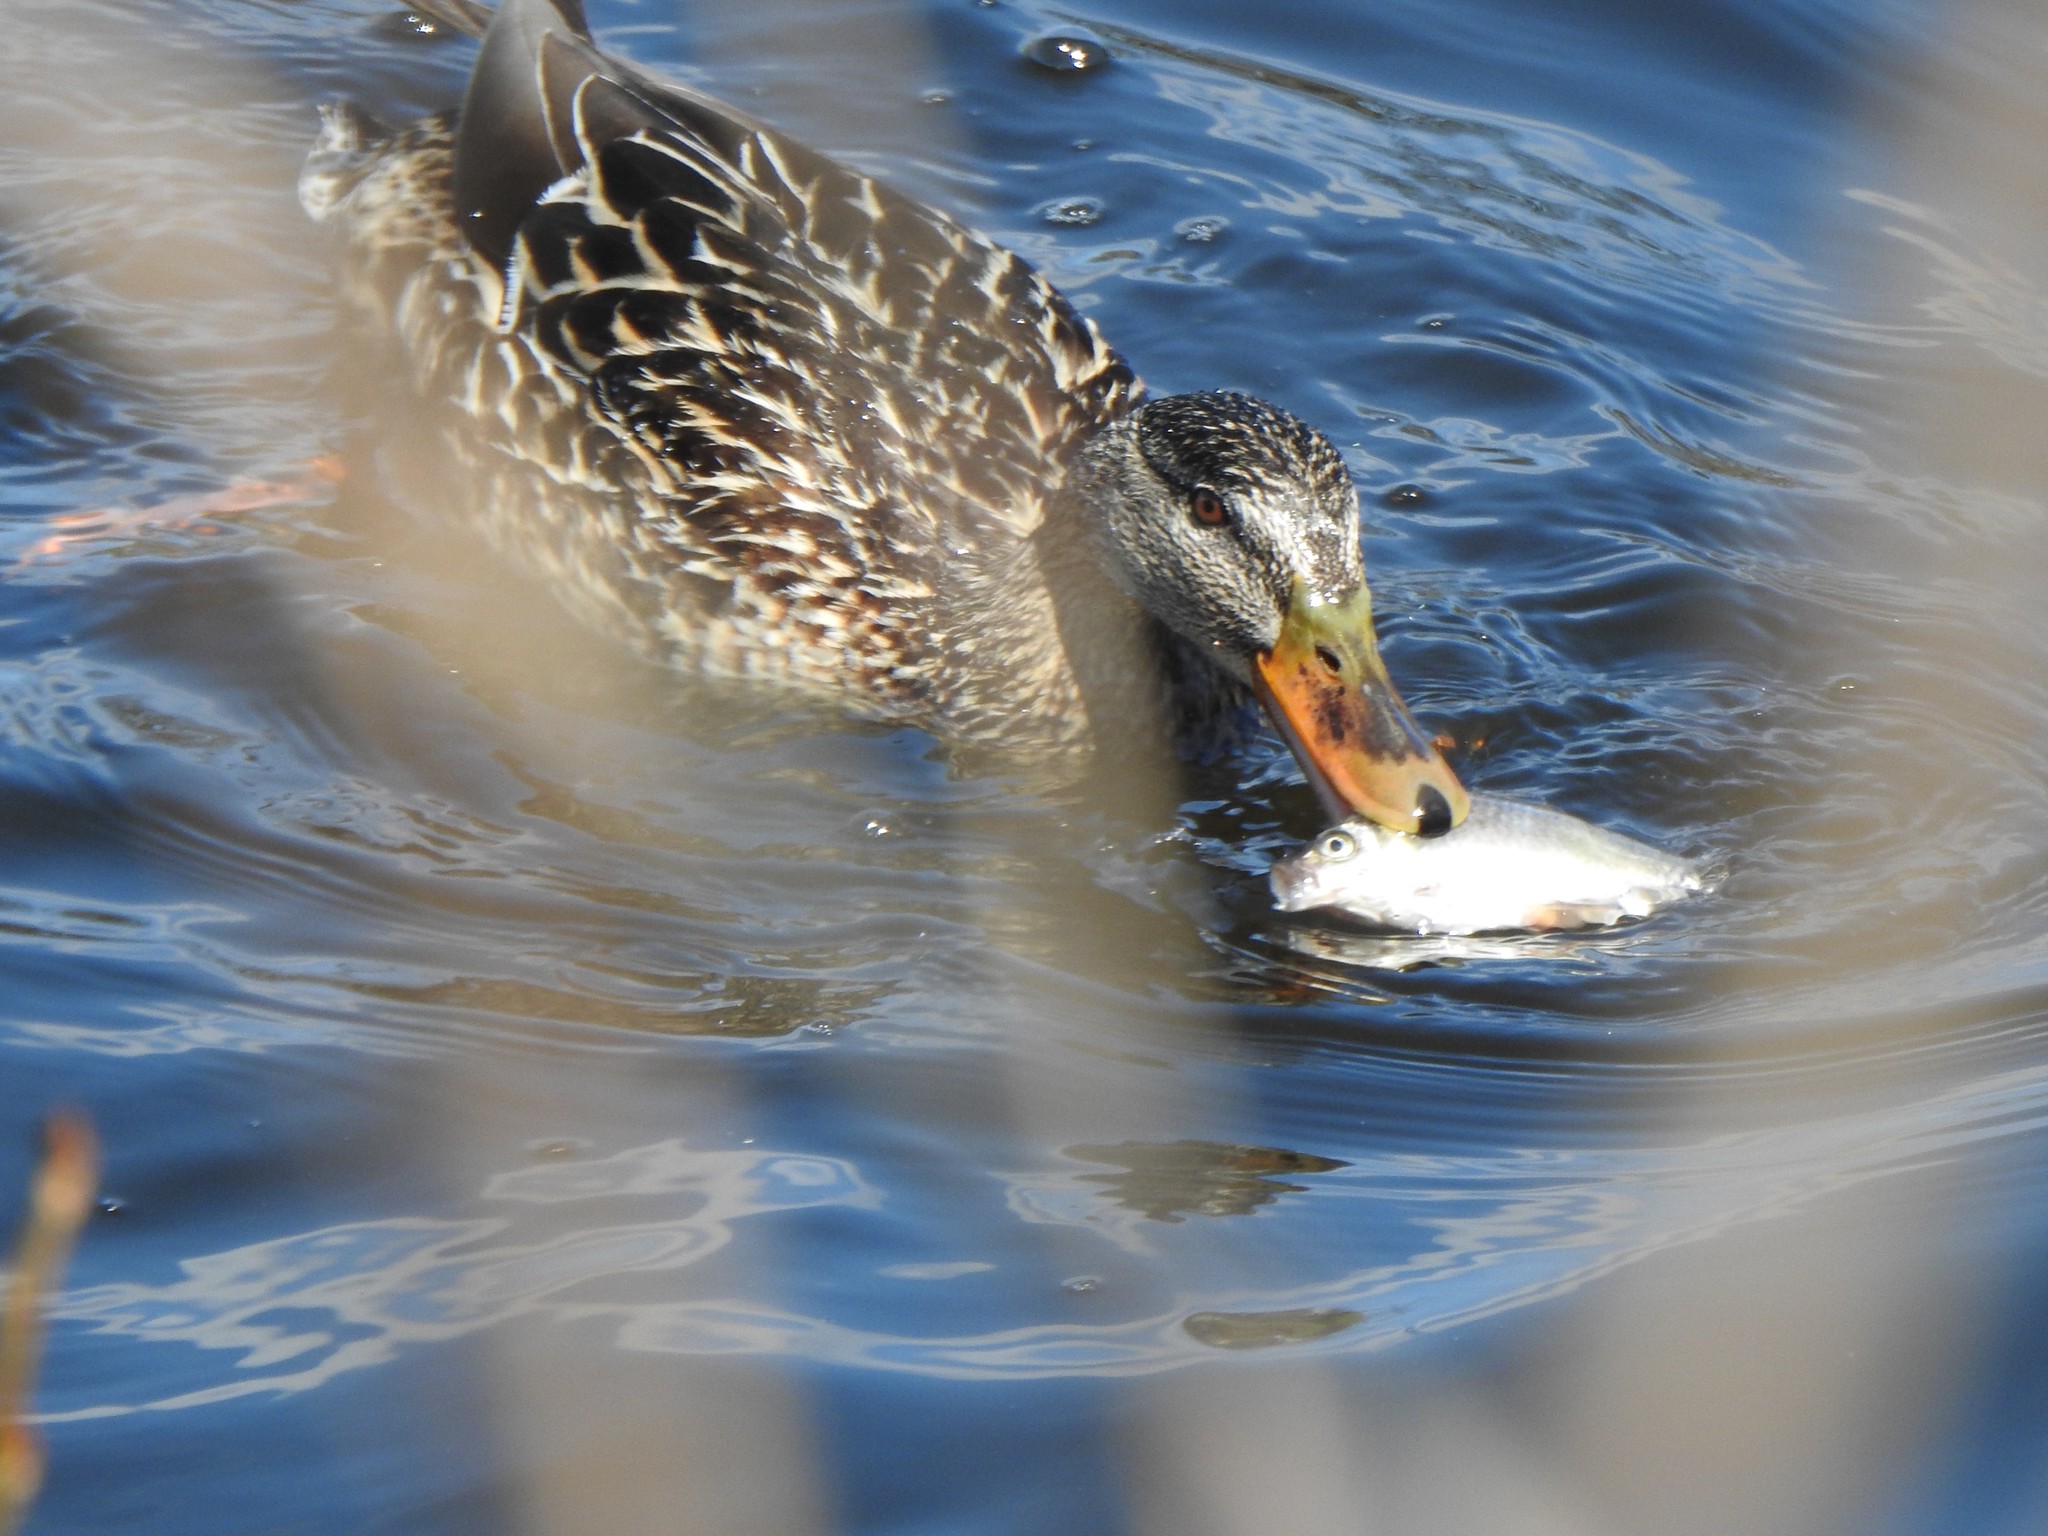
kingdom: Animalia
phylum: Chordata
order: Cypriniformes
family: Cyprinidae
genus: Carassius
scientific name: Carassius auratus
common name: Goldfish
